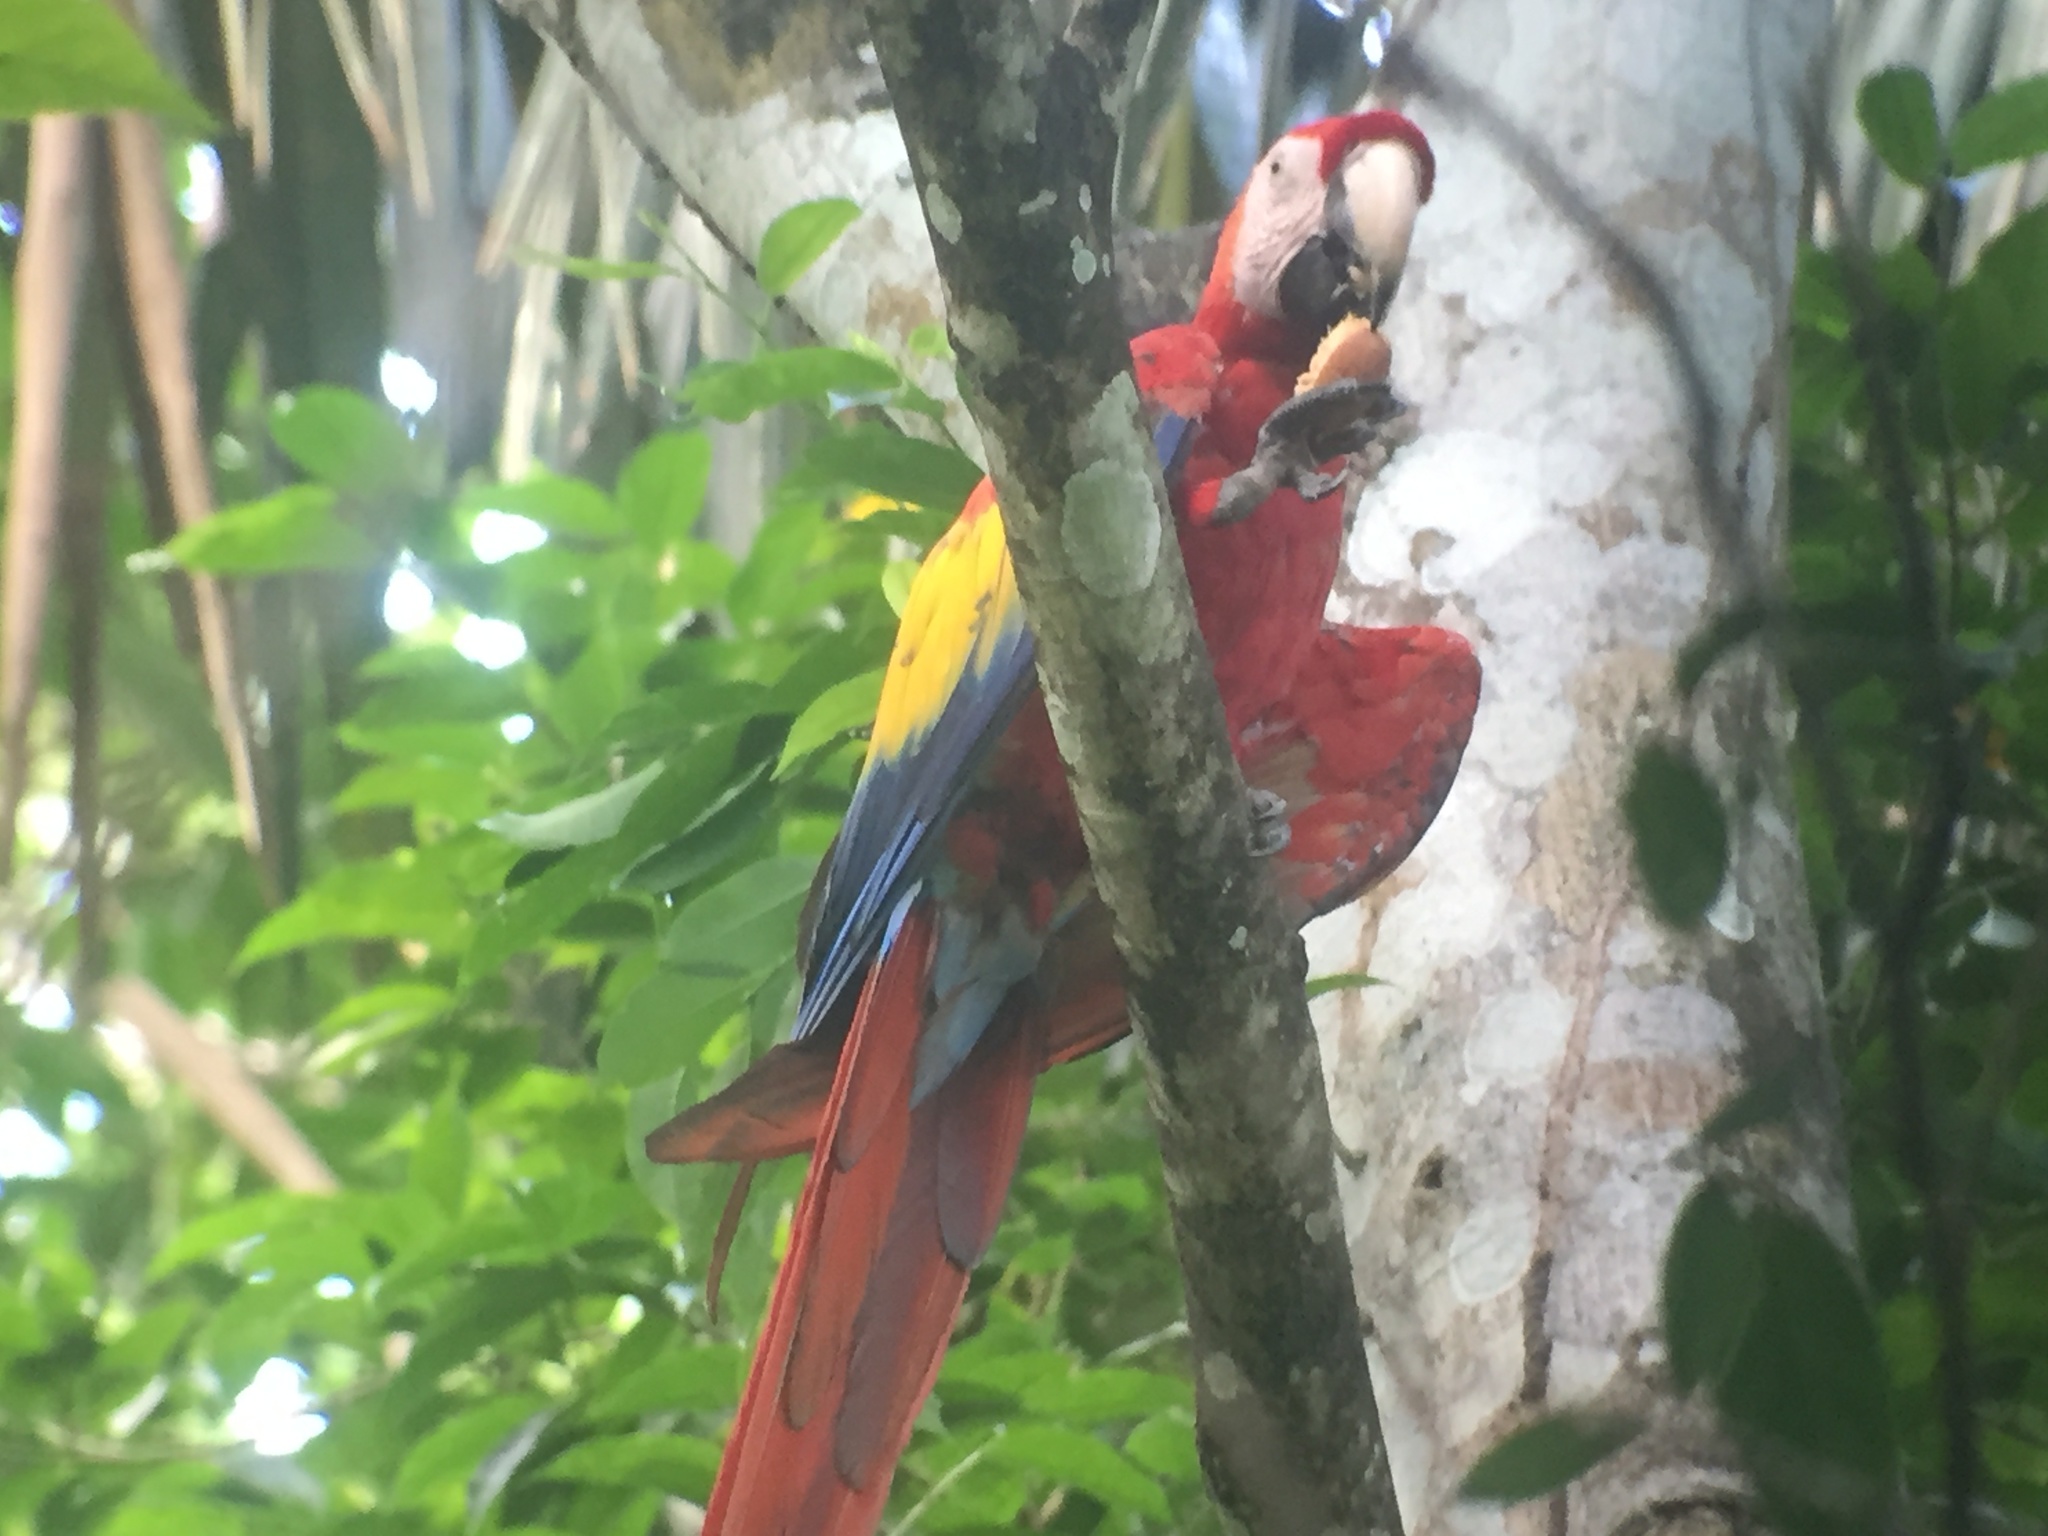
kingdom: Animalia
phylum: Chordata
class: Aves
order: Psittaciformes
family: Psittacidae
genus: Ara
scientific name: Ara macao
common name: Scarlet macaw
